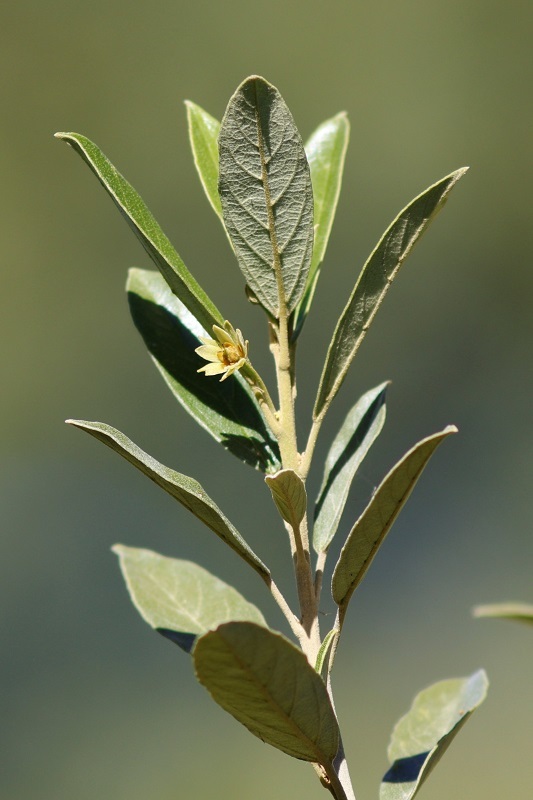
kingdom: Plantae
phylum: Tracheophyta
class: Magnoliopsida
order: Malpighiales
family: Achariaceae
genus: Kiggelaria
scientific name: Kiggelaria africana
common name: Wild peach
